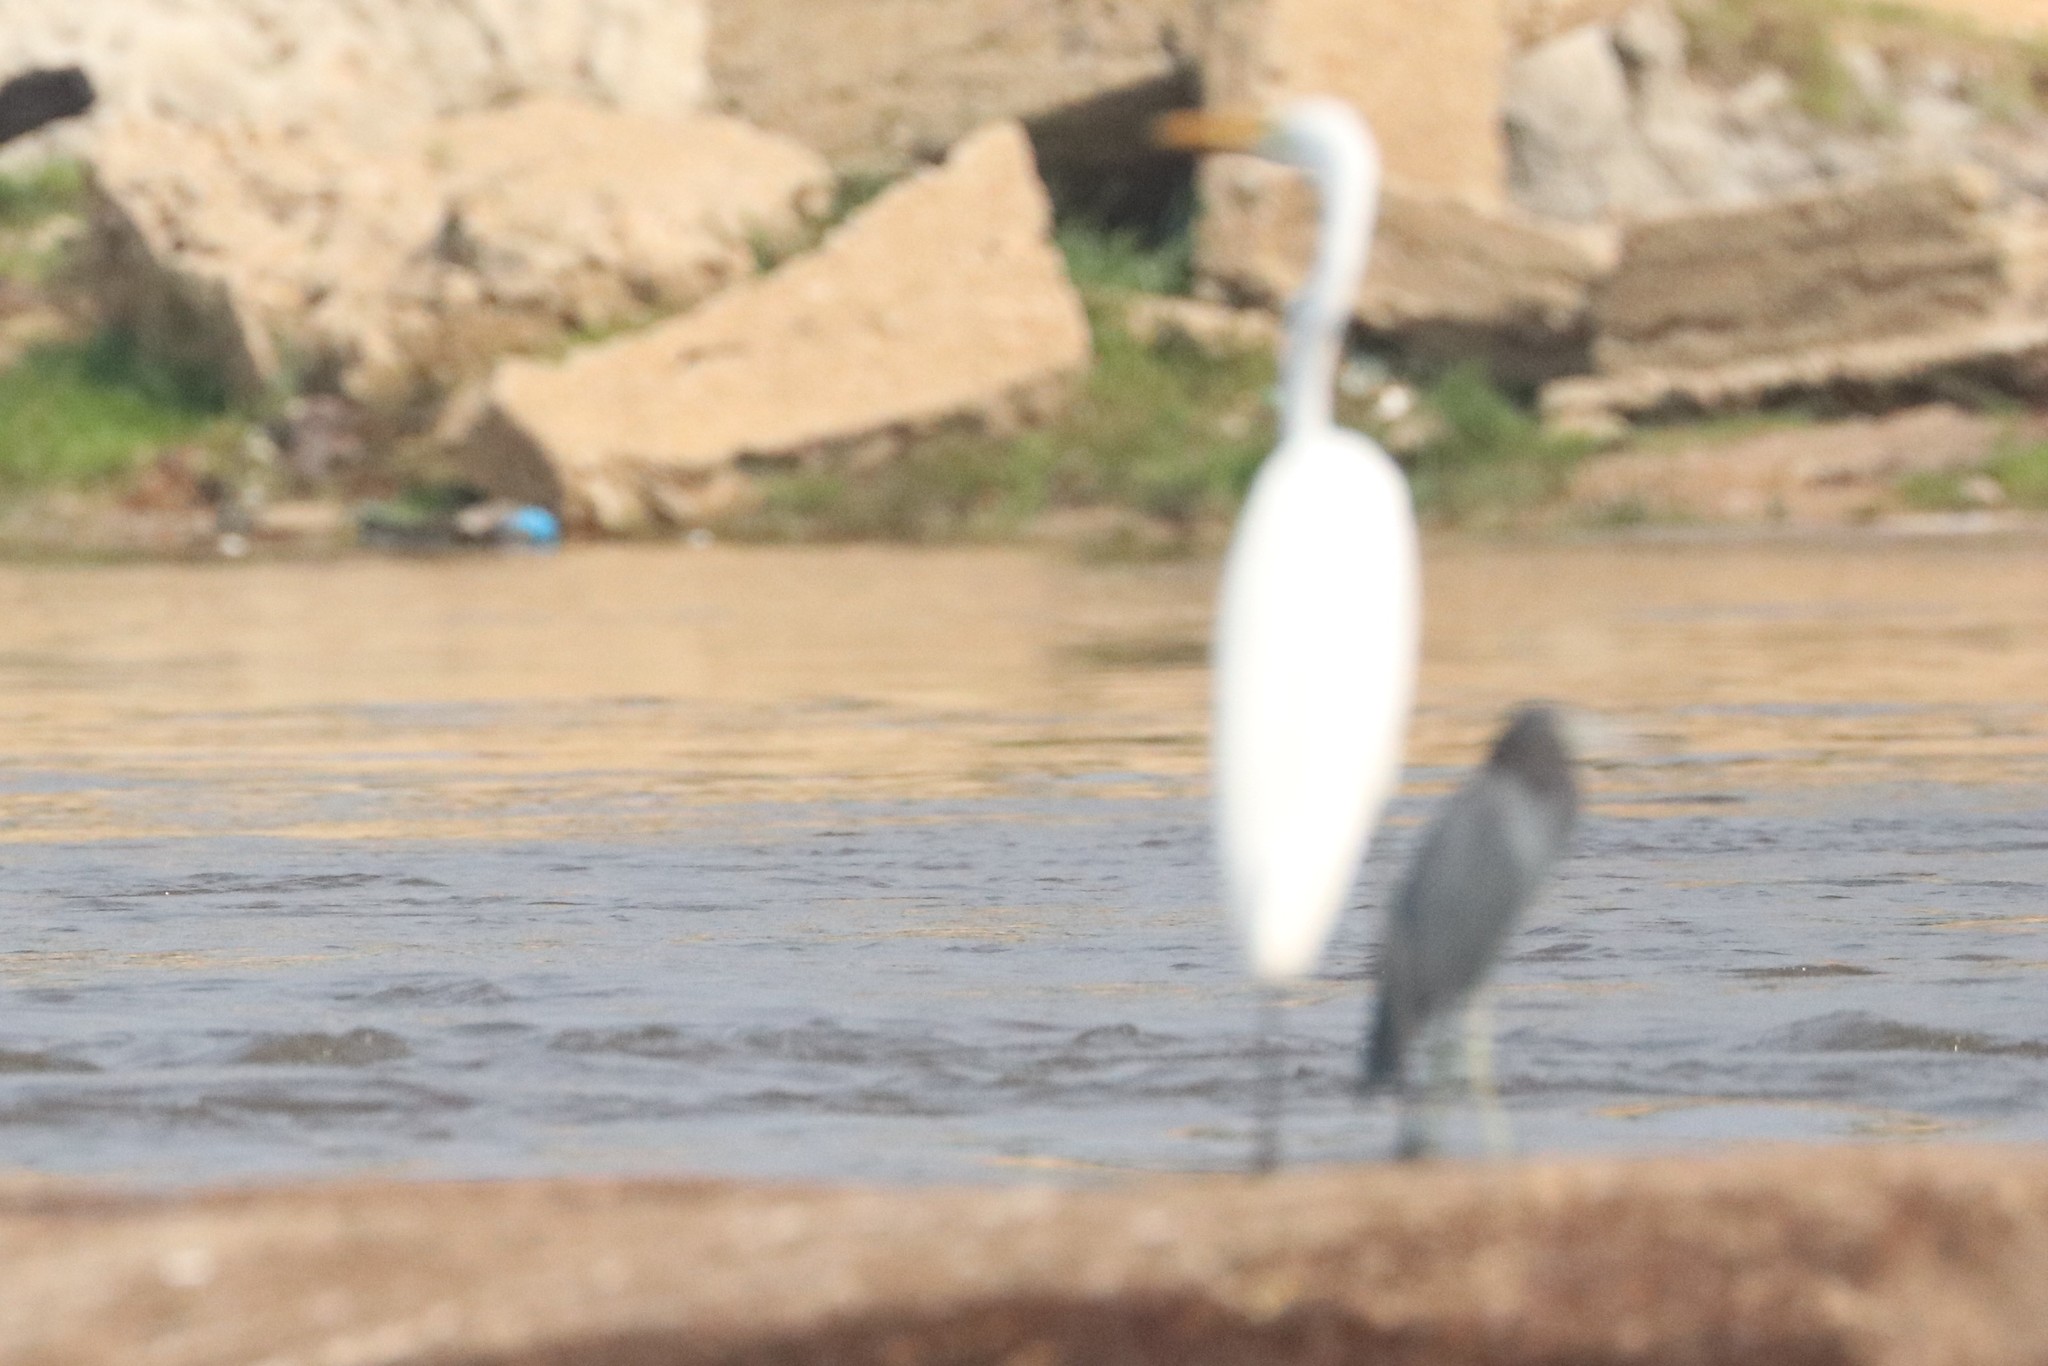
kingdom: Animalia
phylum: Chordata
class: Aves
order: Pelecaniformes
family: Ardeidae
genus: Ardea
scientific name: Ardea alba
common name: Great egret
